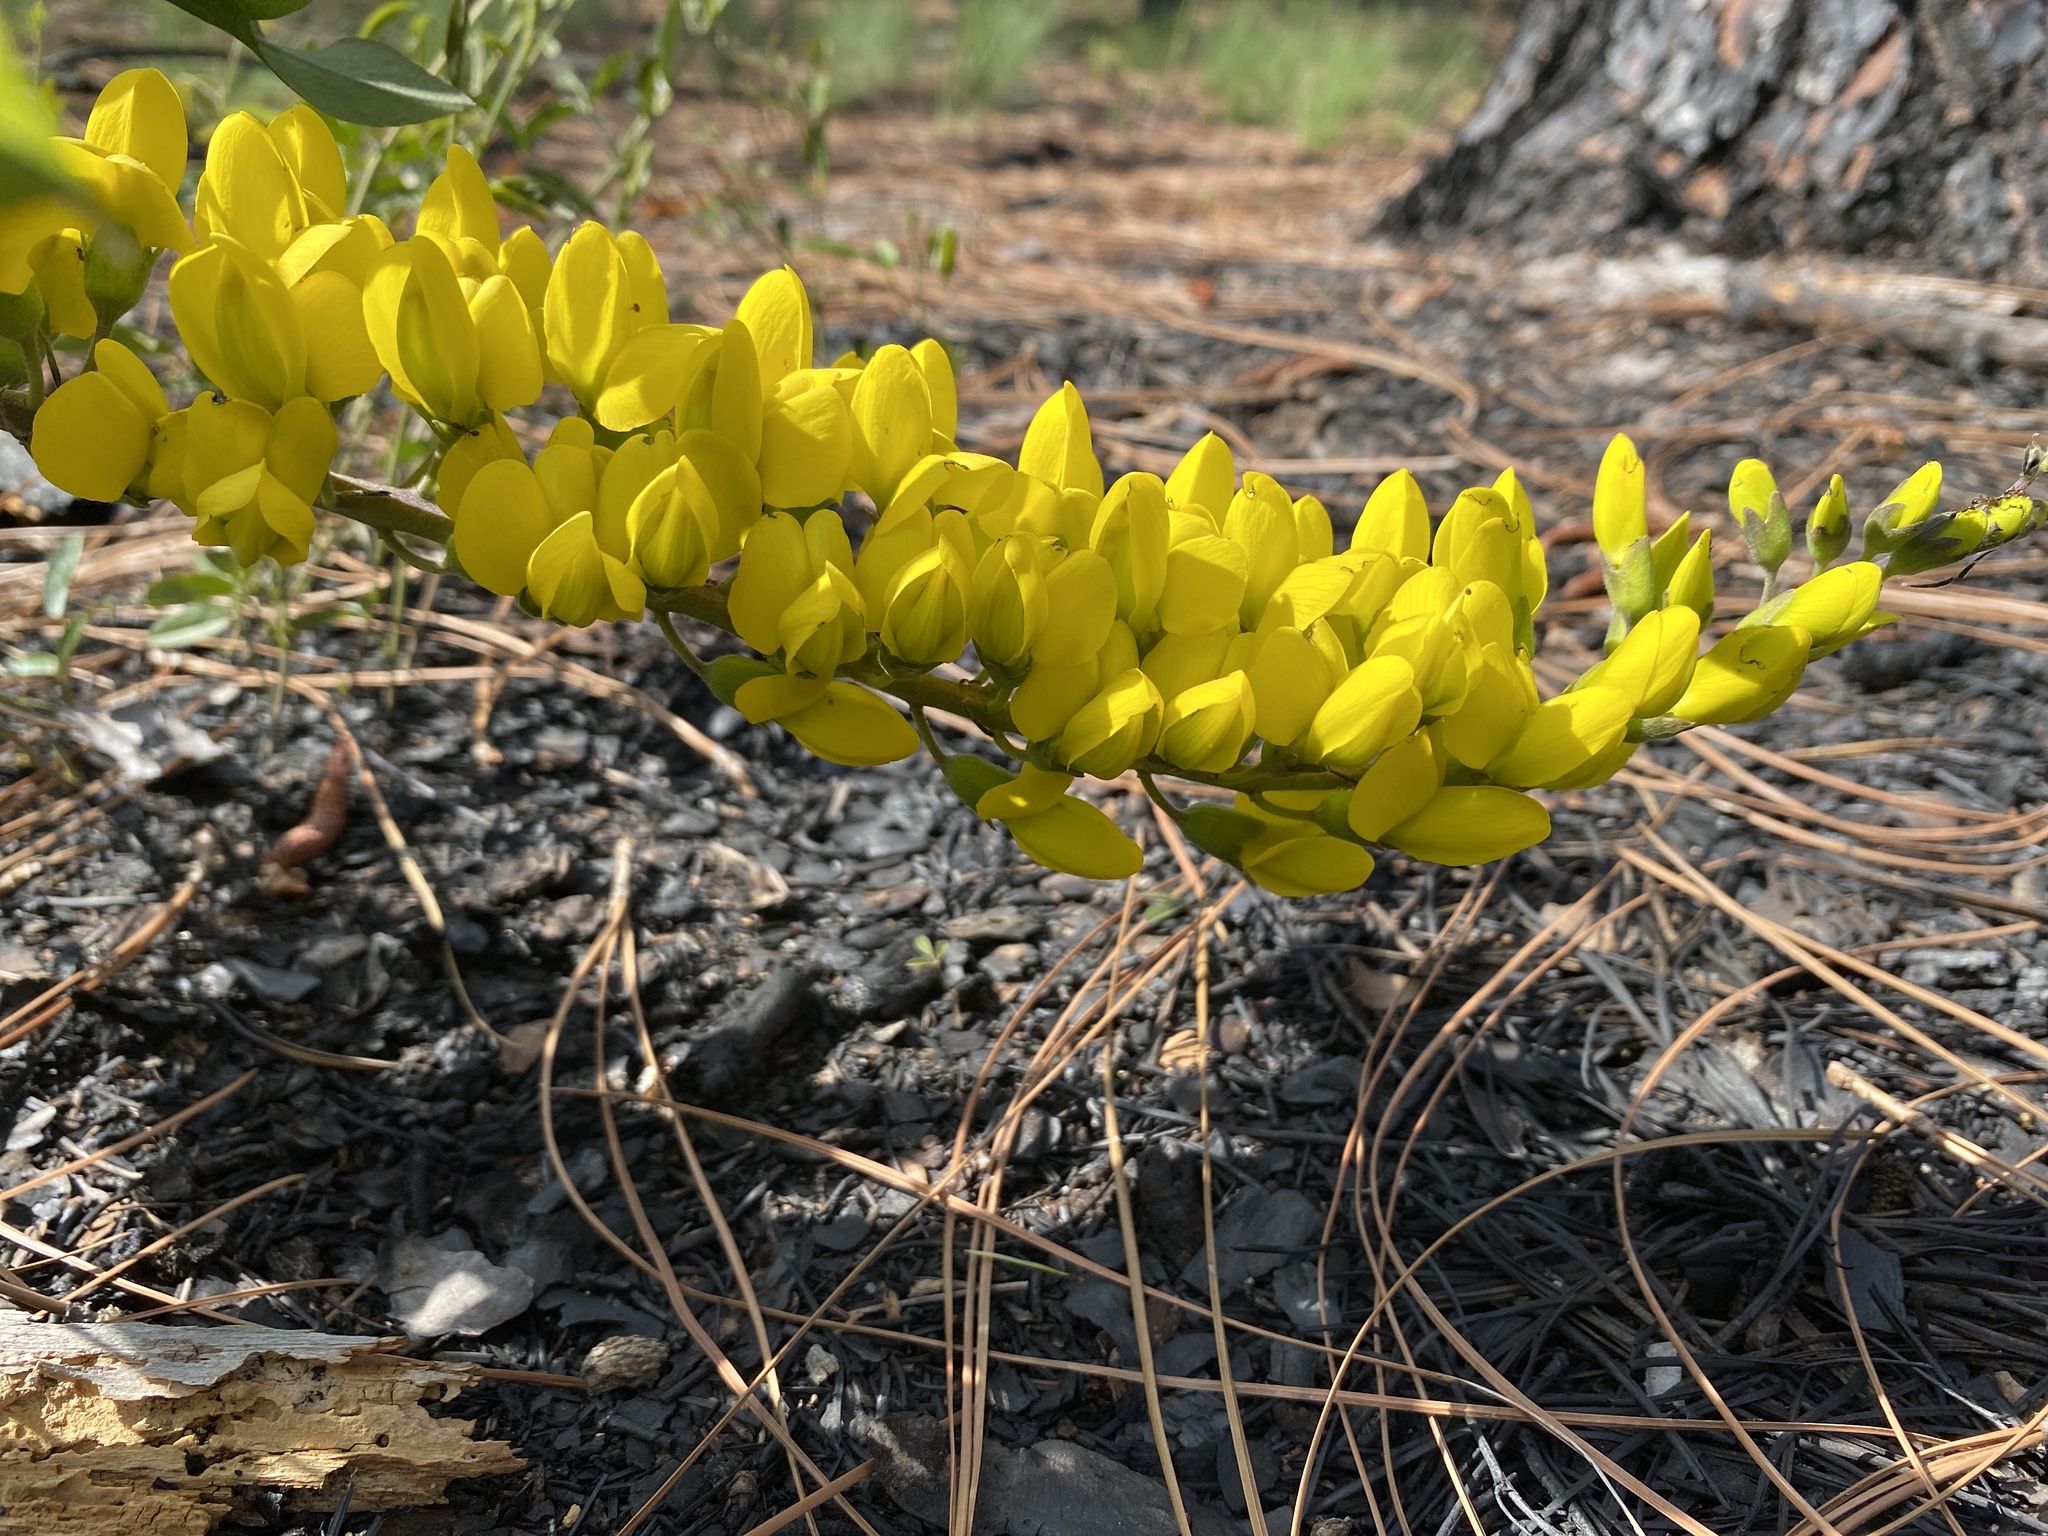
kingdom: Plantae
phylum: Tracheophyta
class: Magnoliopsida
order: Fabales
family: Fabaceae
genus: Baptisia
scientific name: Baptisia cinerea
